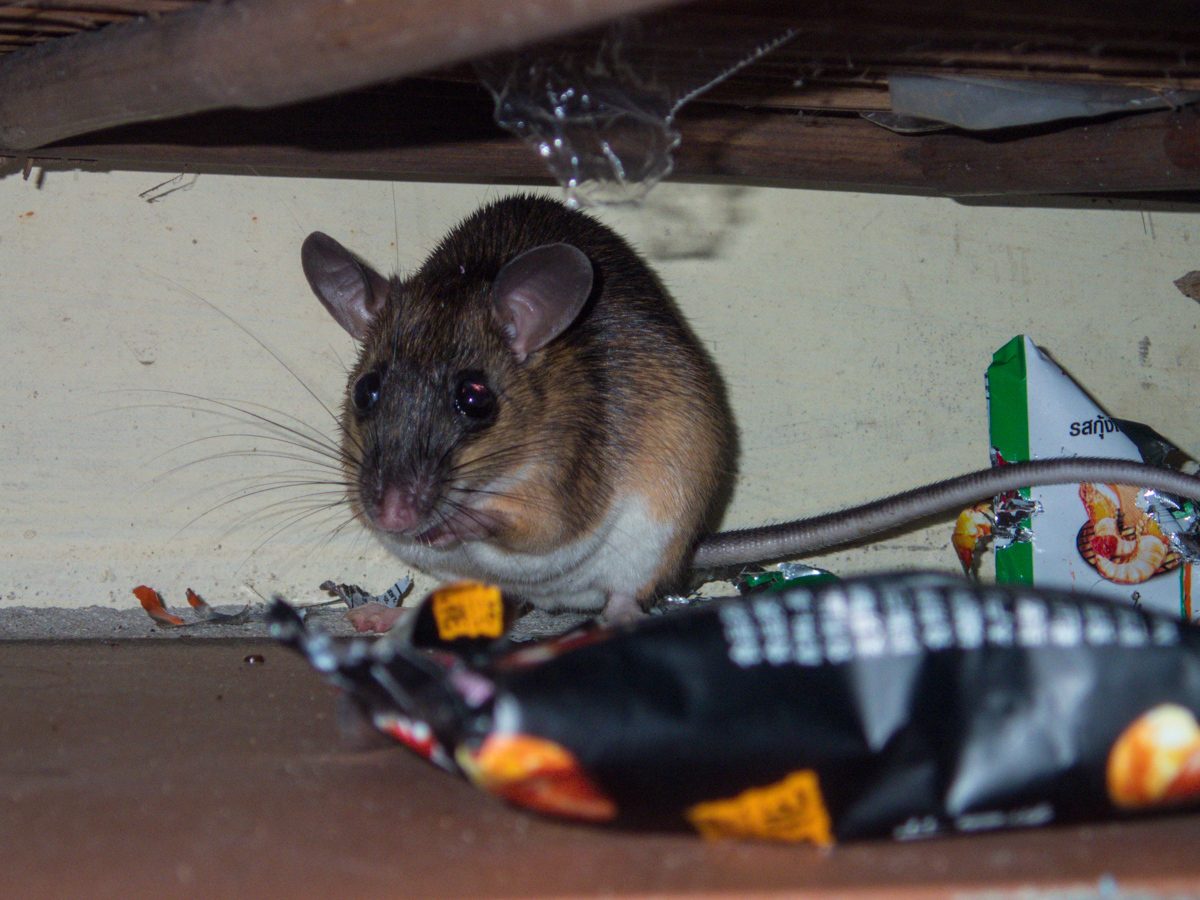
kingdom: Animalia
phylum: Chordata
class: Mammalia
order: Rodentia
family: Muridae
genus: Leopoldamys
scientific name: Leopoldamys sabanus
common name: Indomalayan leopoldamys
